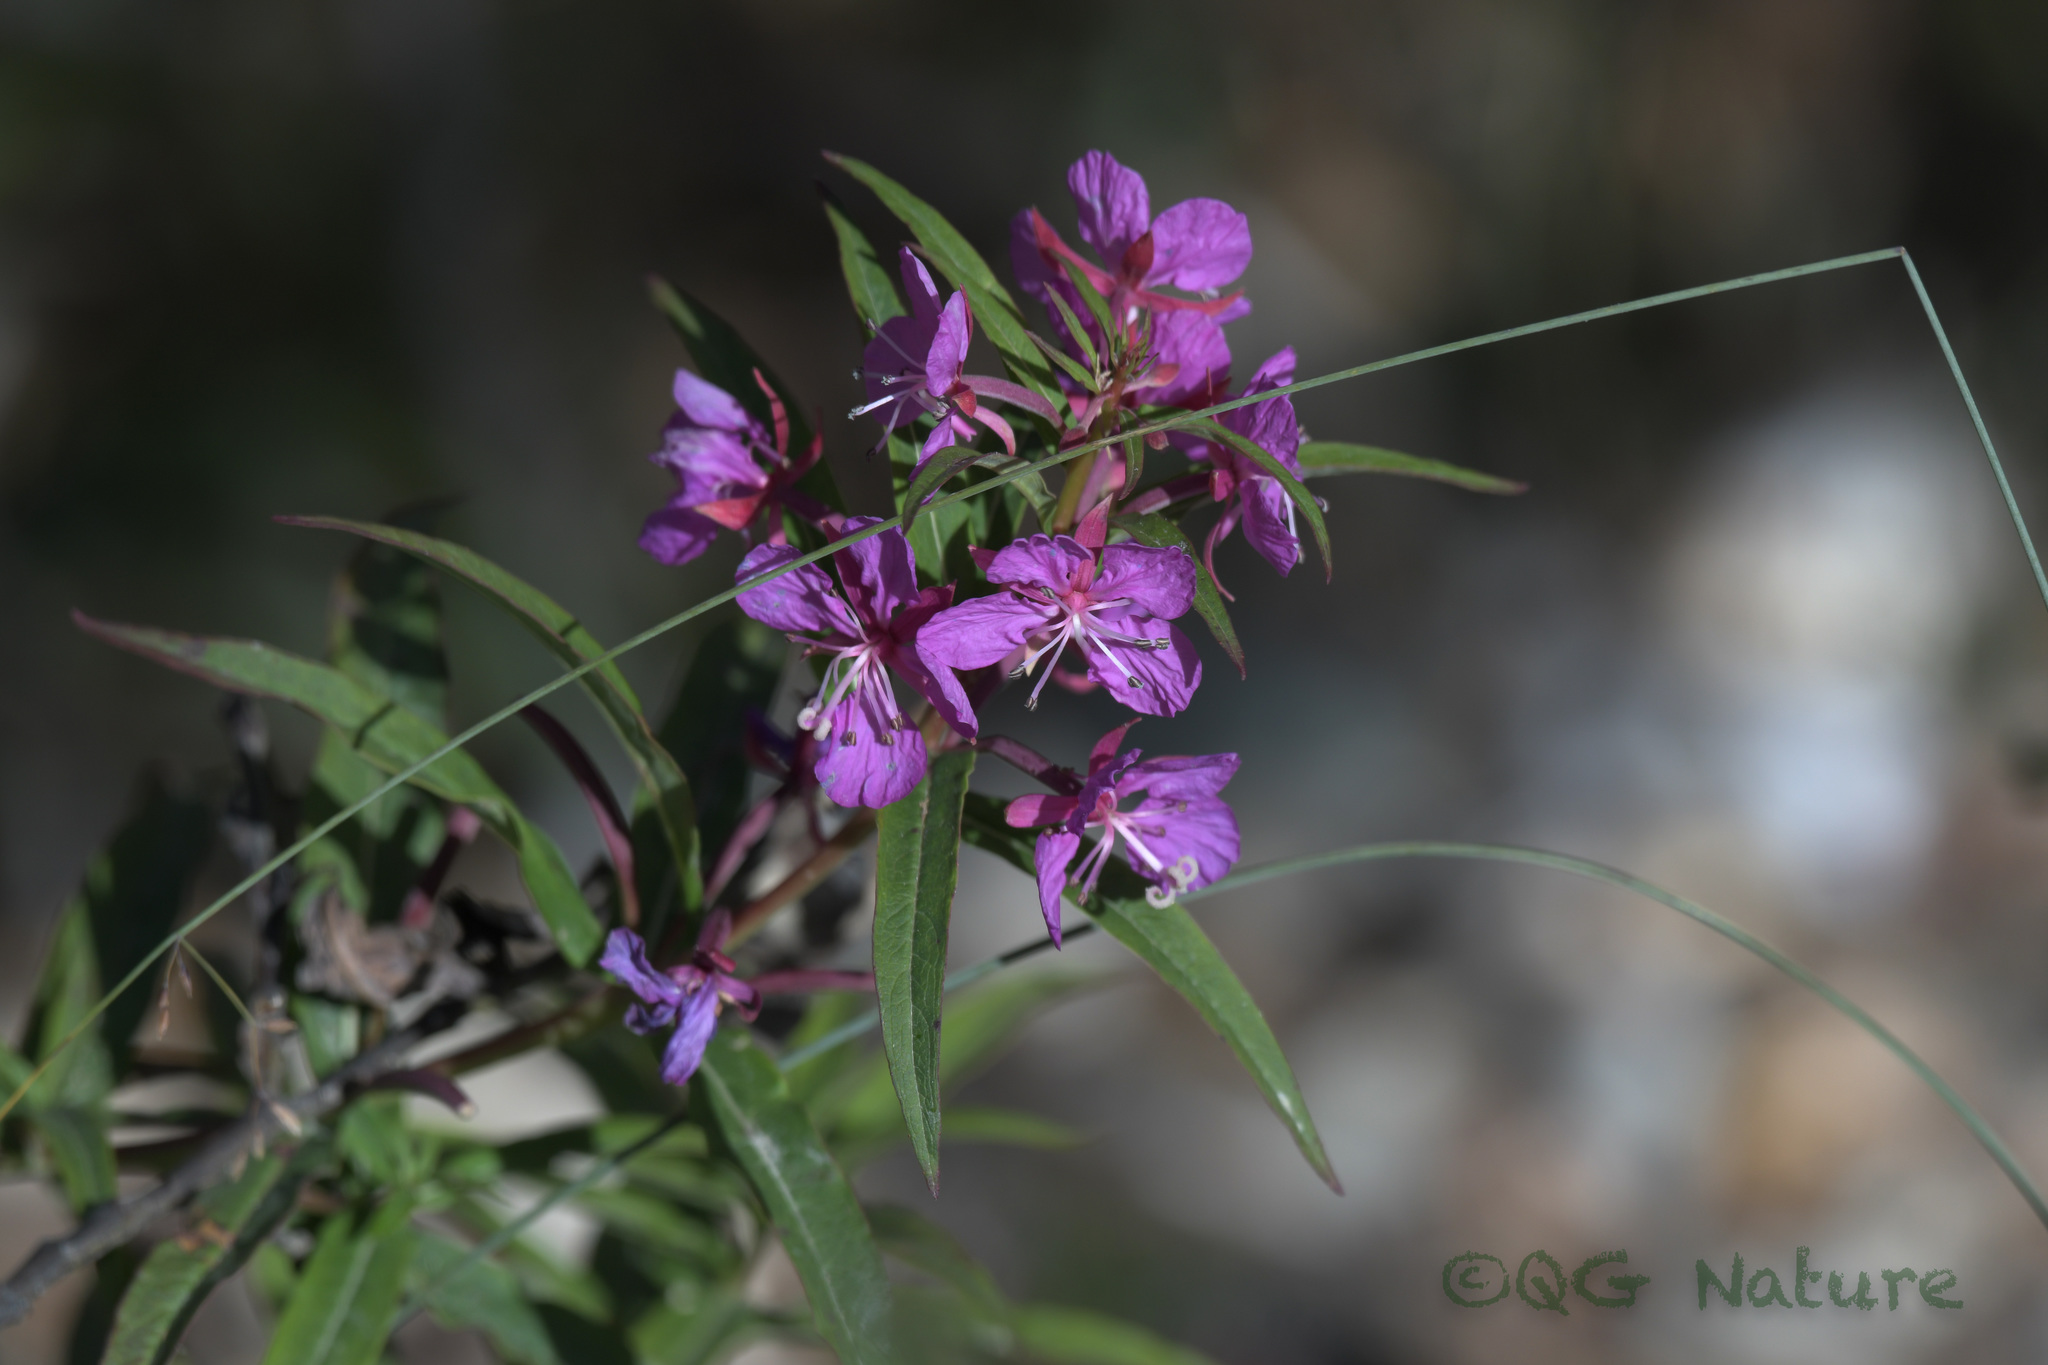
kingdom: Plantae
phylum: Tracheophyta
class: Magnoliopsida
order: Myrtales
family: Onagraceae
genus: Chamaenerion
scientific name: Chamaenerion angustifolium
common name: Fireweed
